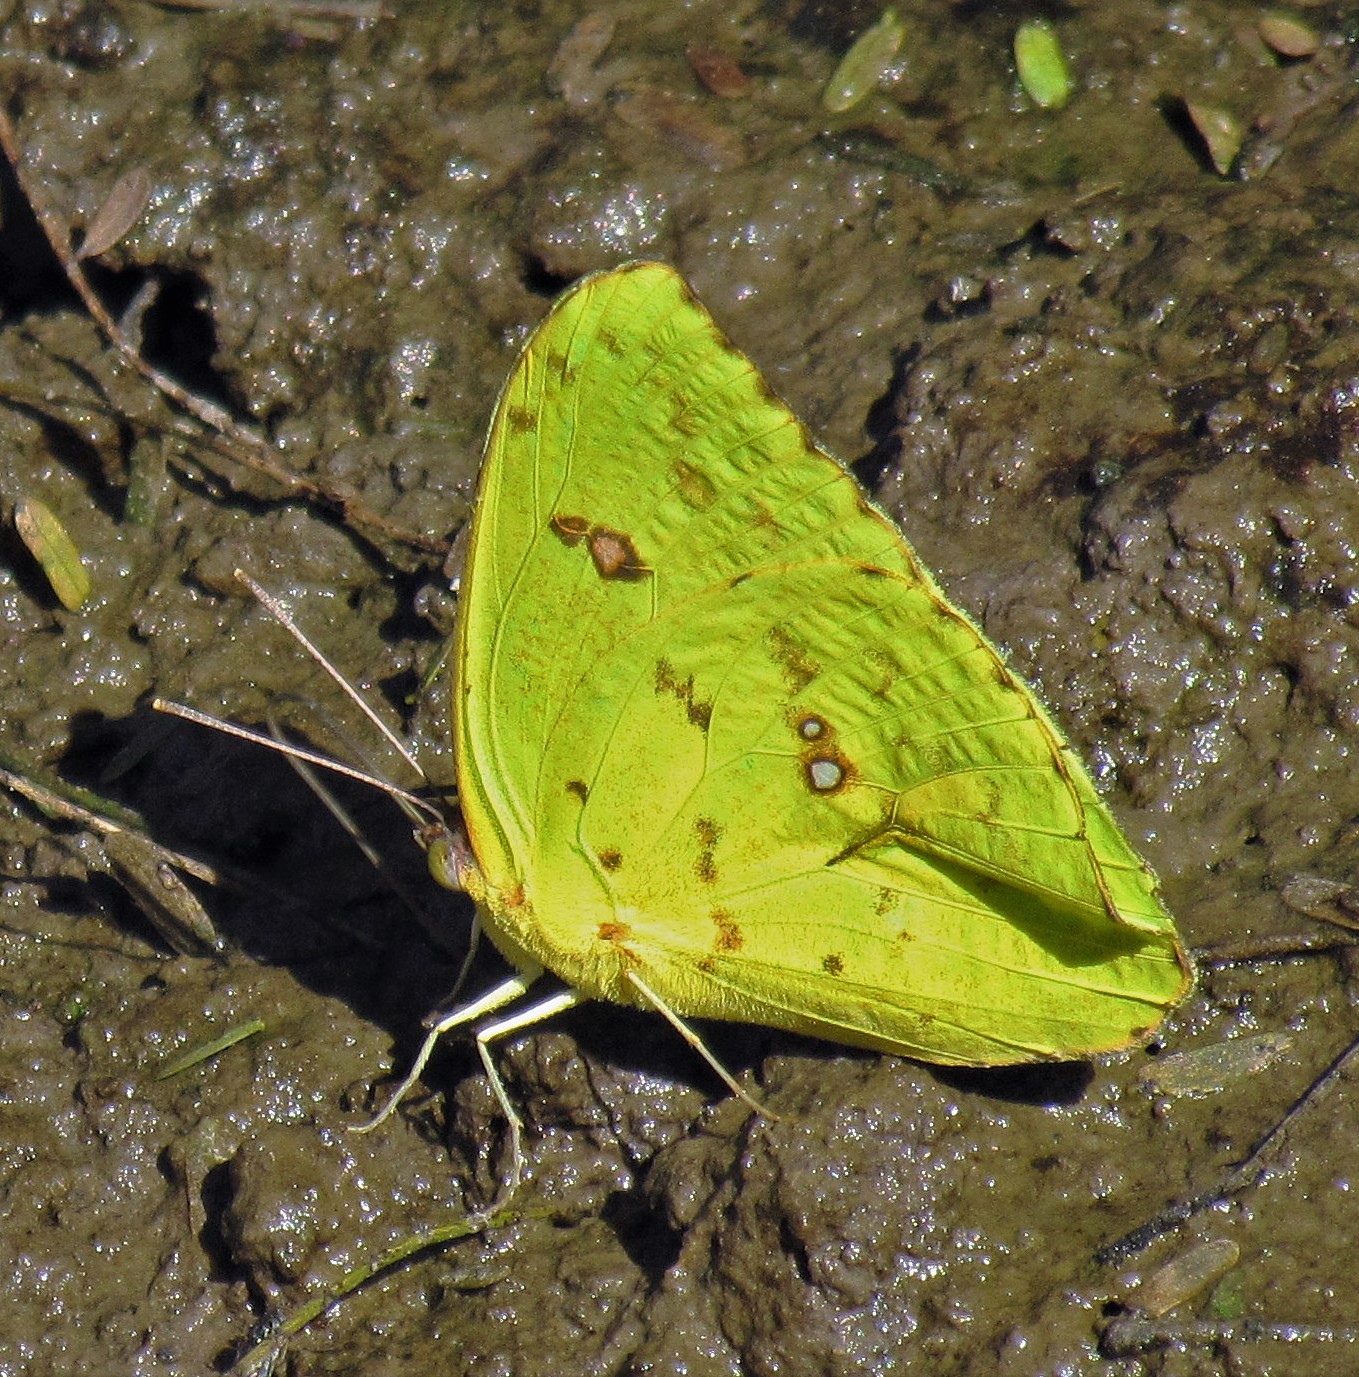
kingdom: Animalia
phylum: Arthropoda
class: Insecta
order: Lepidoptera
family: Pieridae
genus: Phoebis
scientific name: Phoebis marcellina
